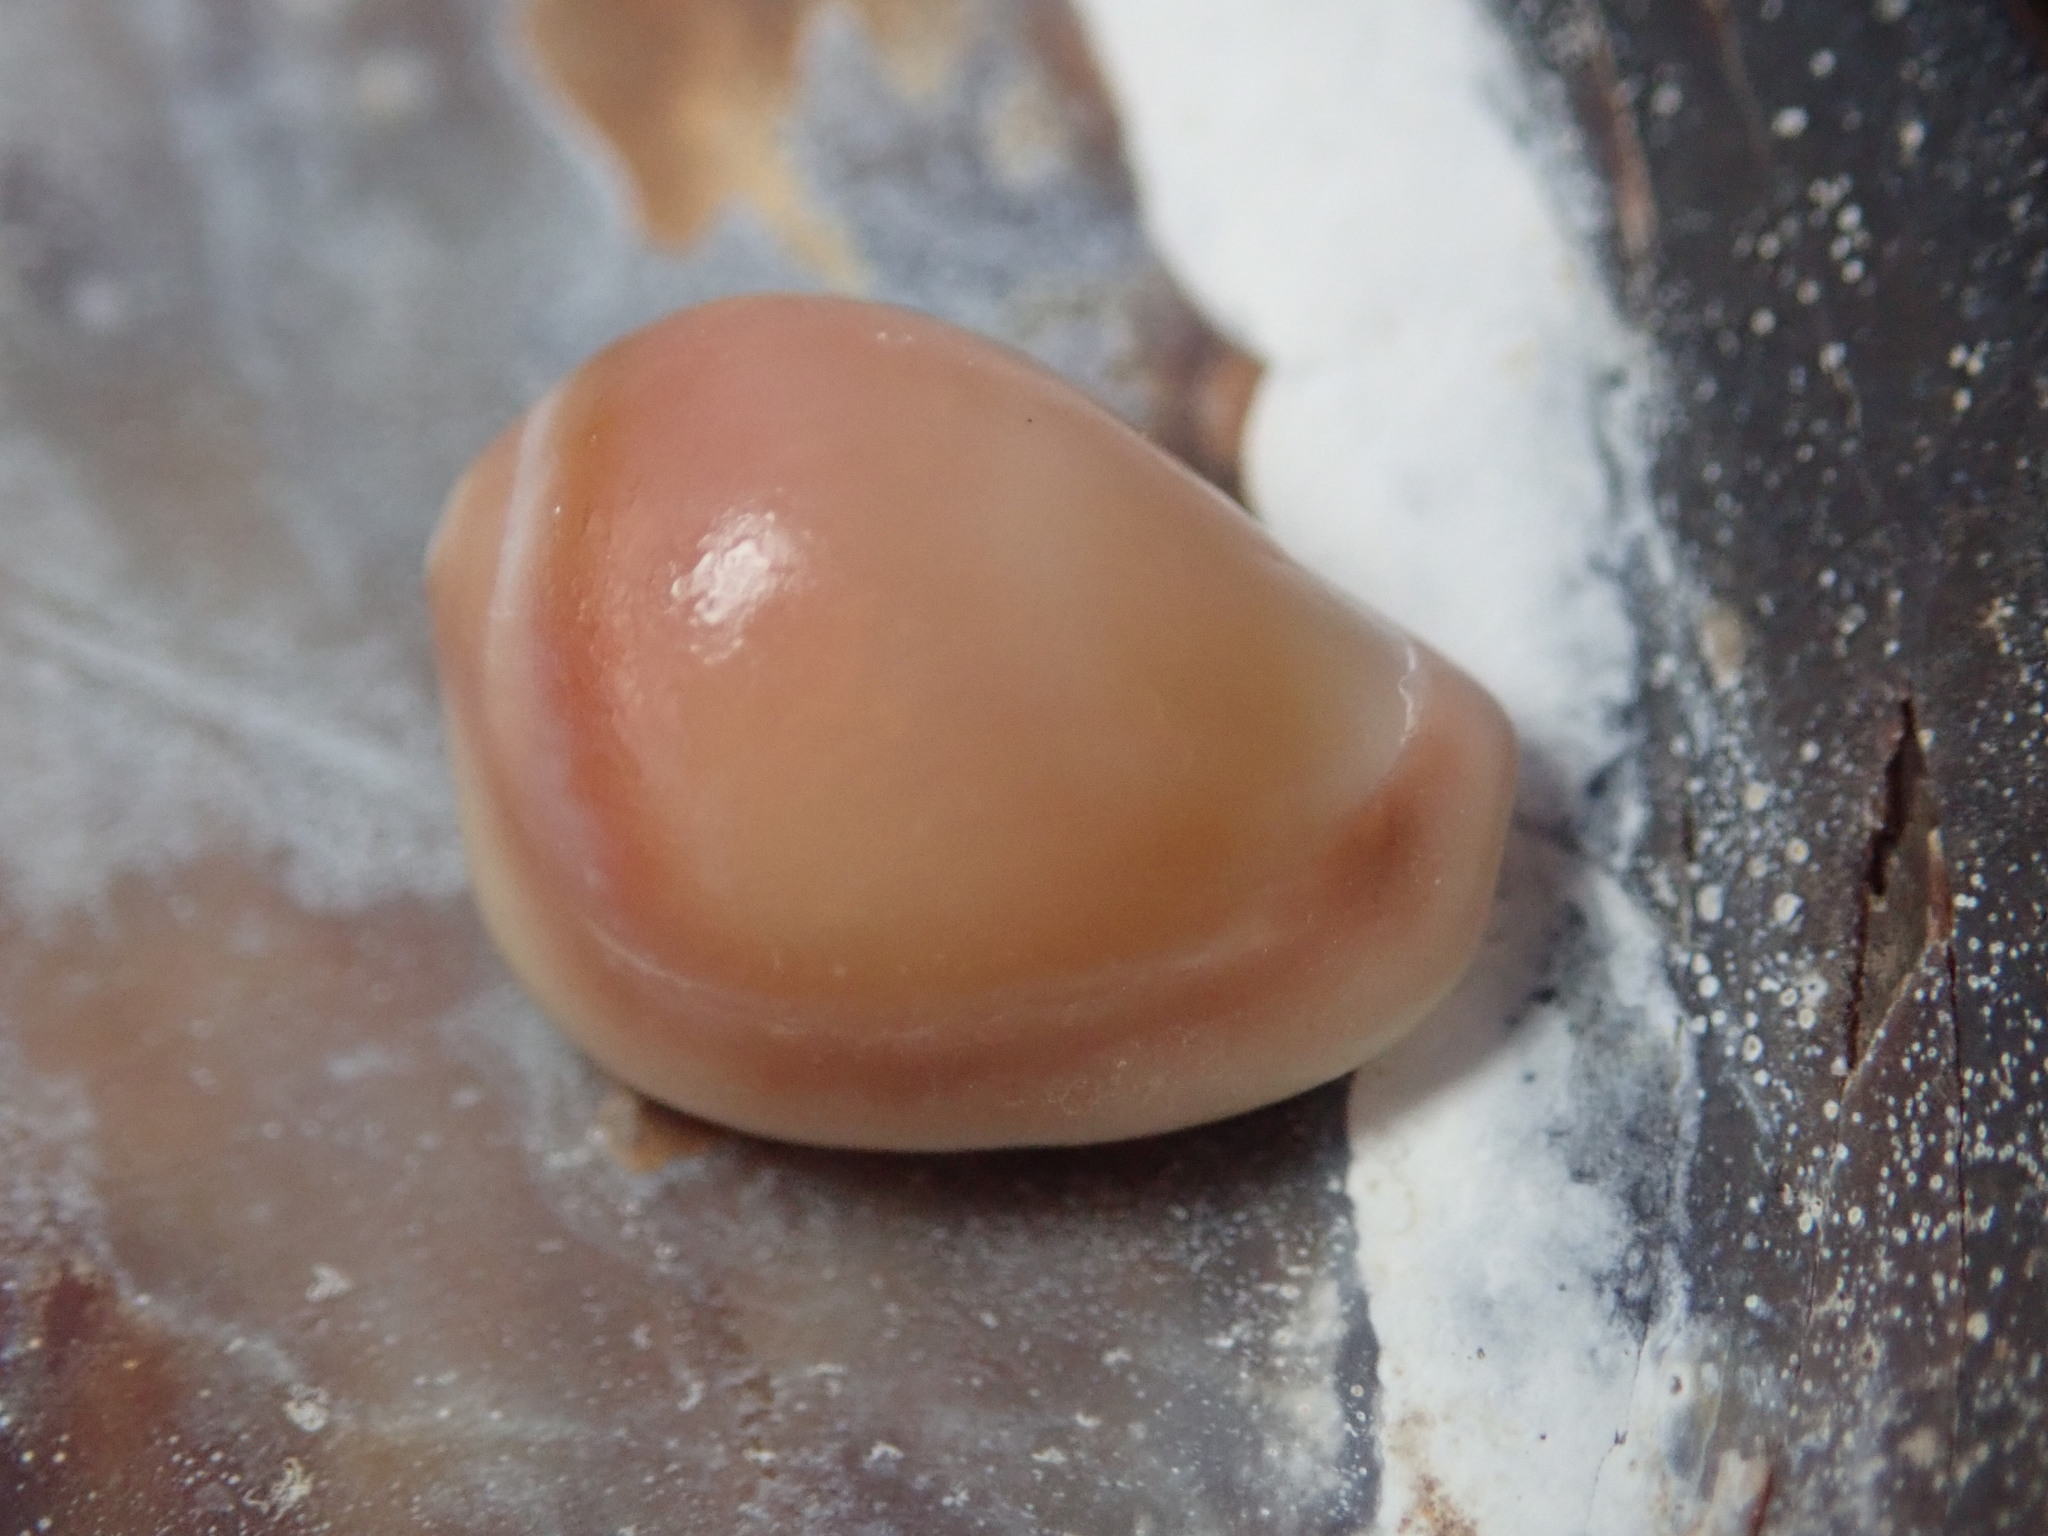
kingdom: Animalia
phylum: Mollusca
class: Gastropoda
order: Littorinimorpha
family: Eratoidae
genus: Hespererato
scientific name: Hespererato vitellina
